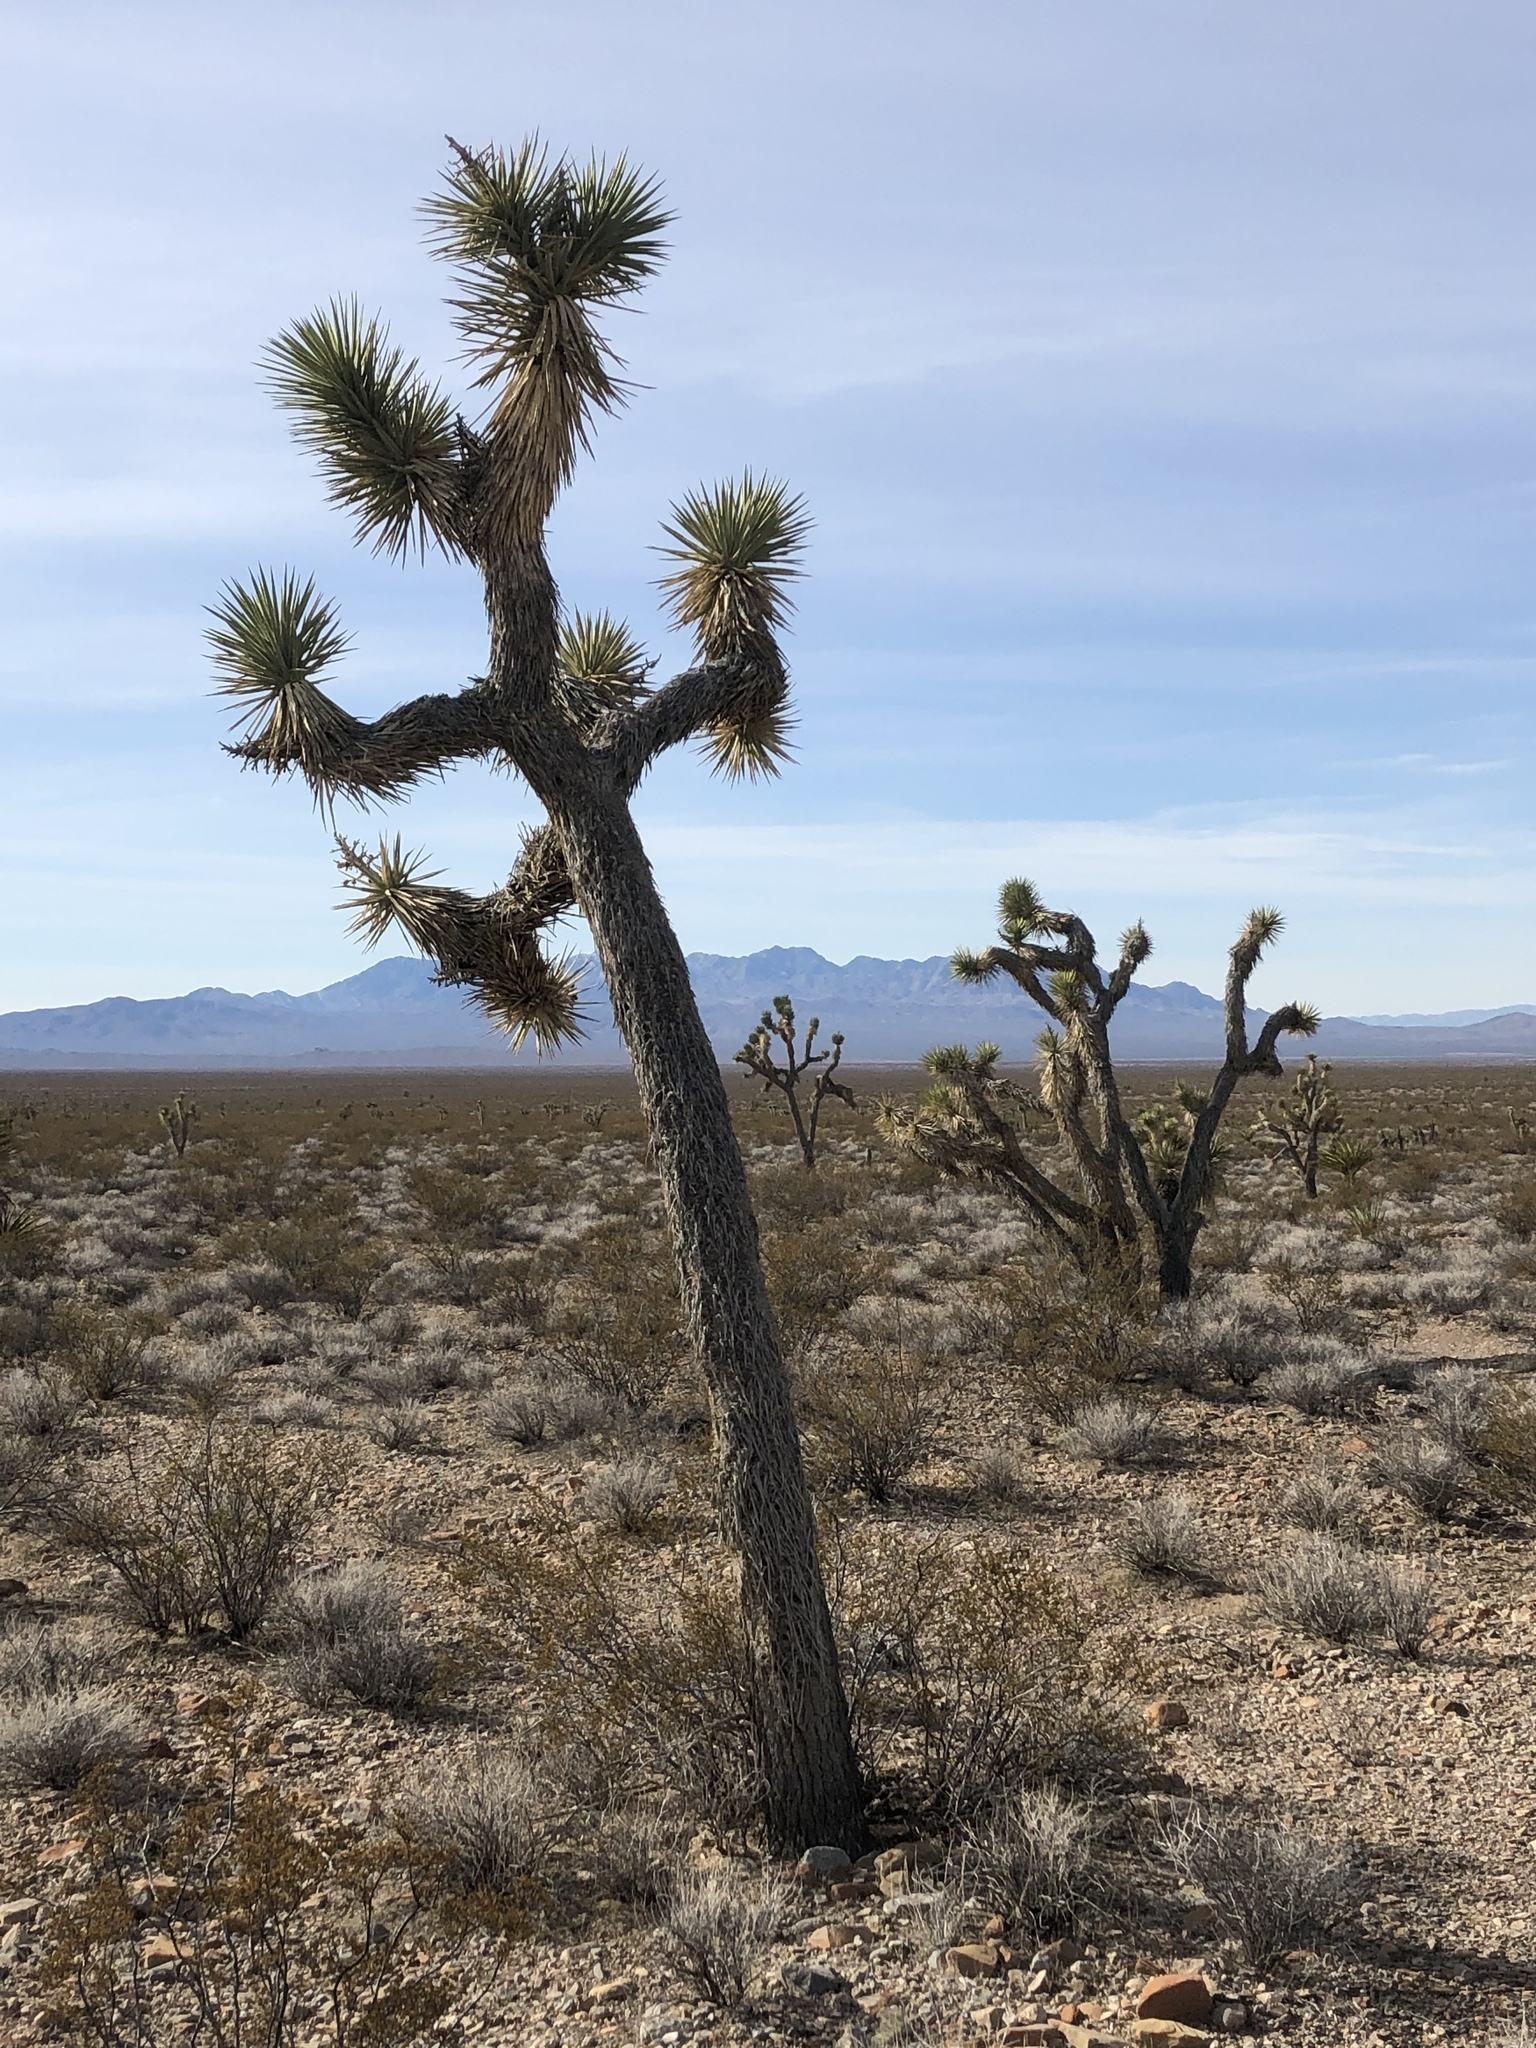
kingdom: Plantae
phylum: Tracheophyta
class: Liliopsida
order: Asparagales
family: Asparagaceae
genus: Yucca
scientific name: Yucca brevifolia
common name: Joshua tree
